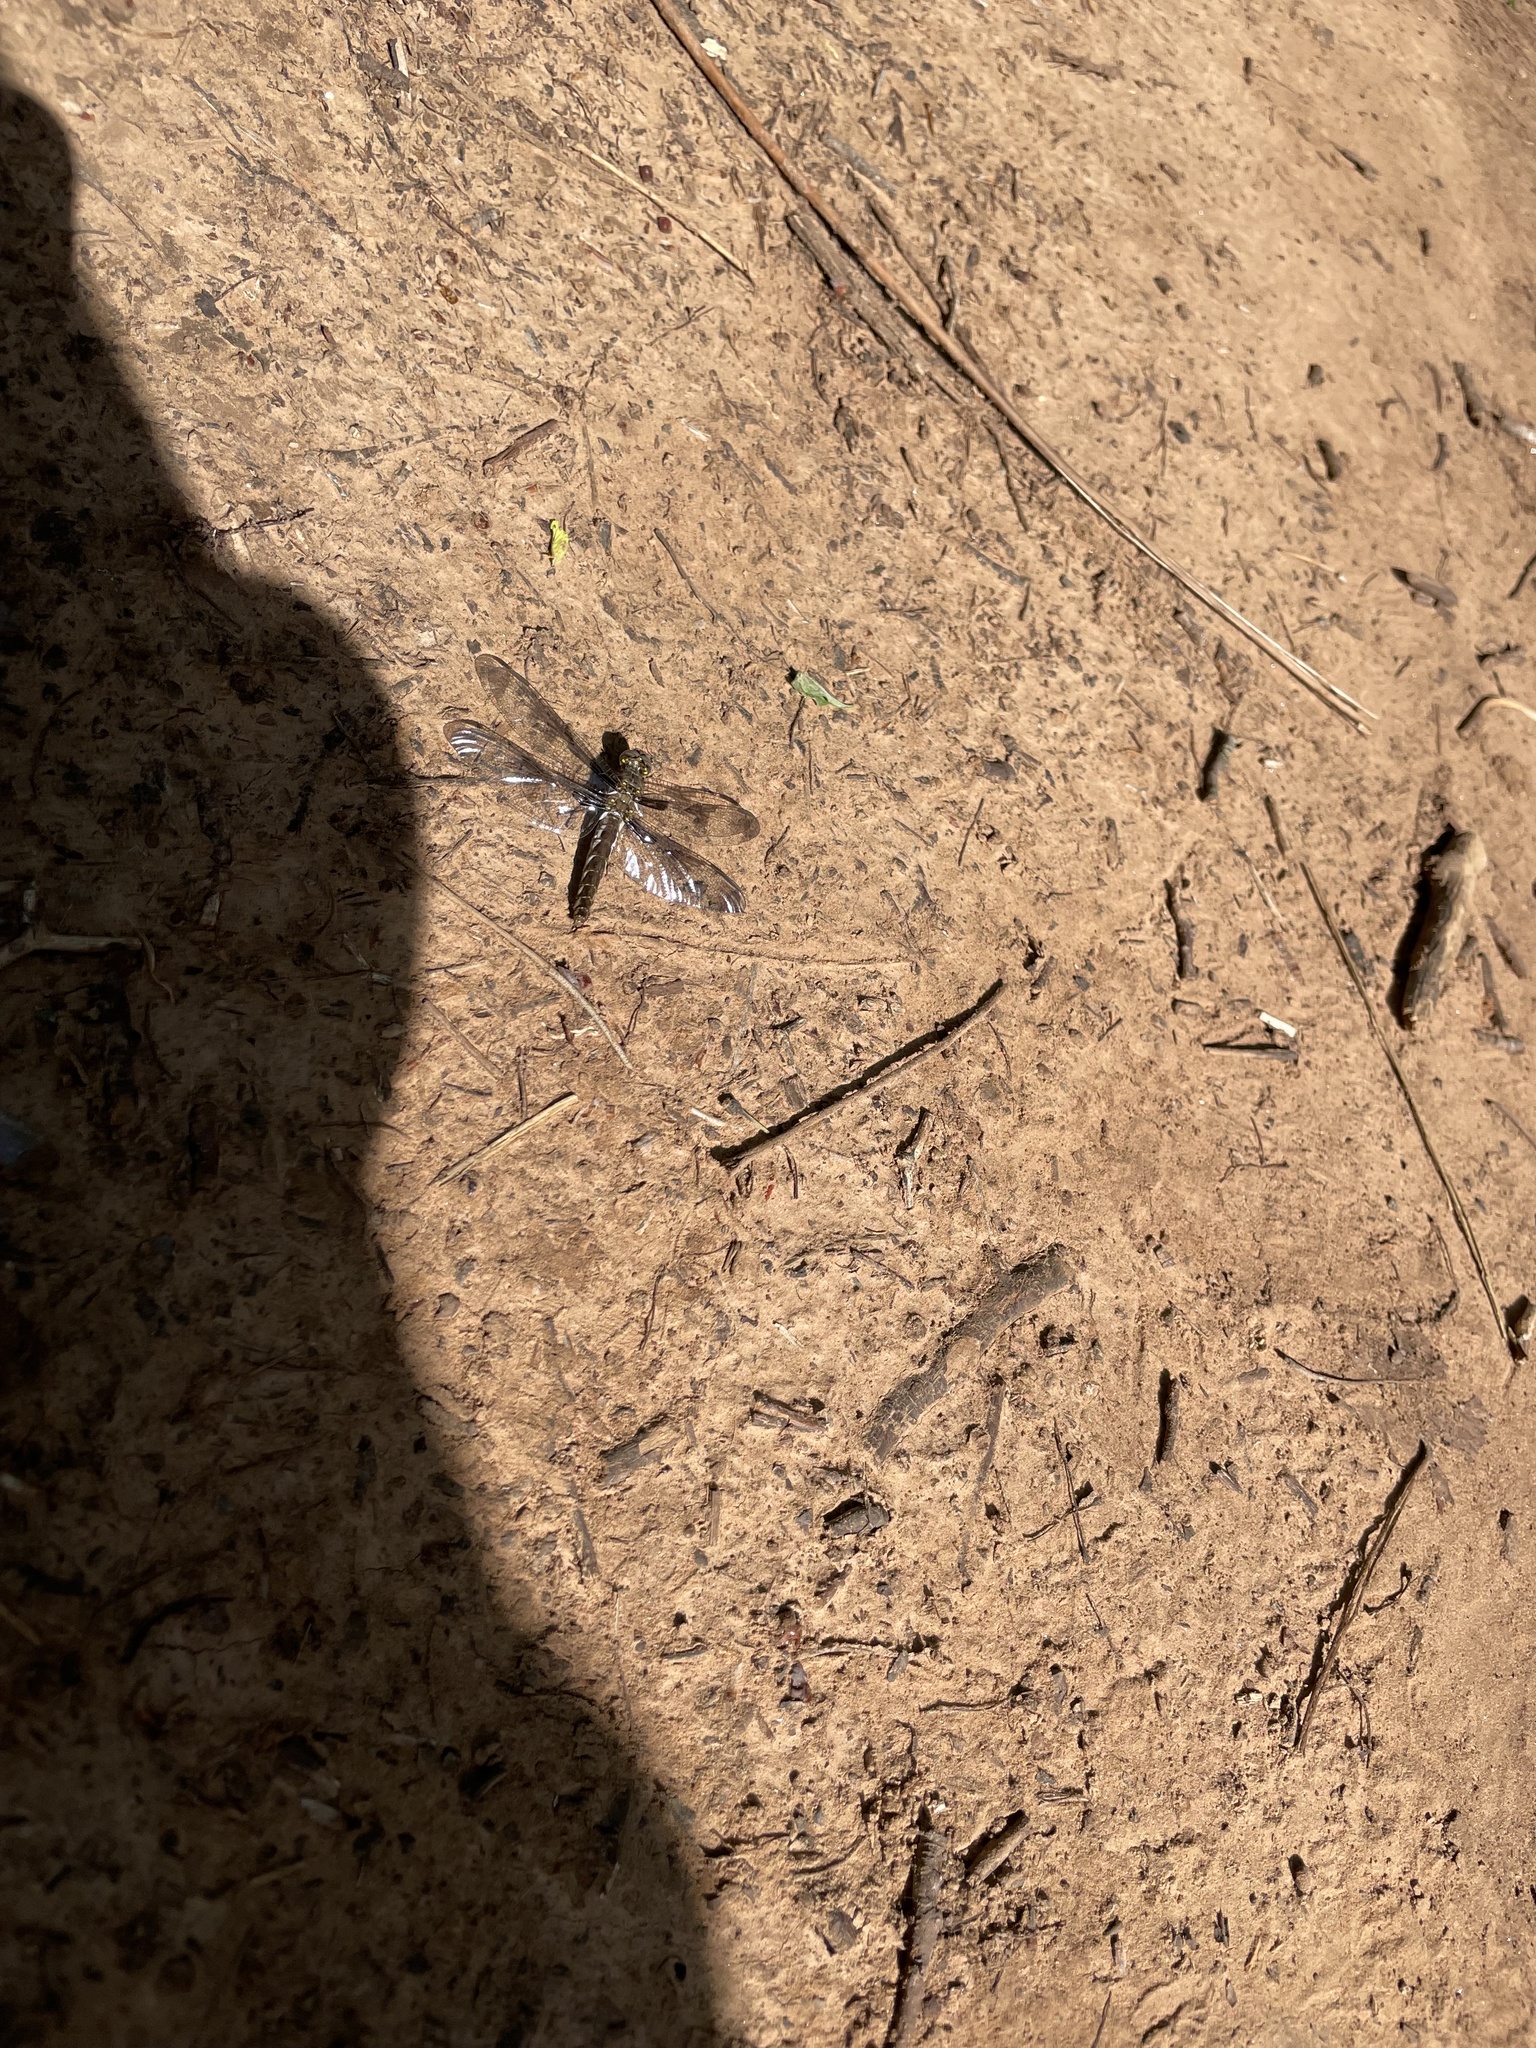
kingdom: Animalia
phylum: Arthropoda
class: Insecta
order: Odonata
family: Libellulidae
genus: Plathemis
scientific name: Plathemis lydia
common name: Common whitetail
